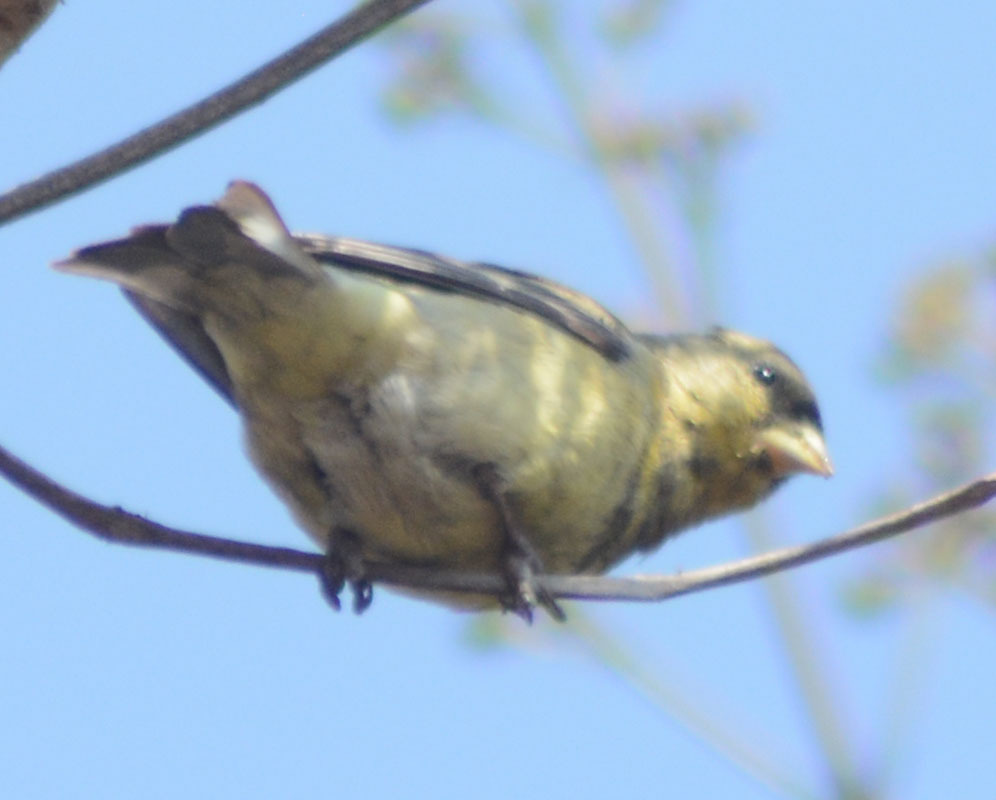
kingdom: Animalia
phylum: Chordata
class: Aves
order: Passeriformes
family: Fringillidae
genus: Spinus
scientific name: Spinus psaltria
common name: Lesser goldfinch
